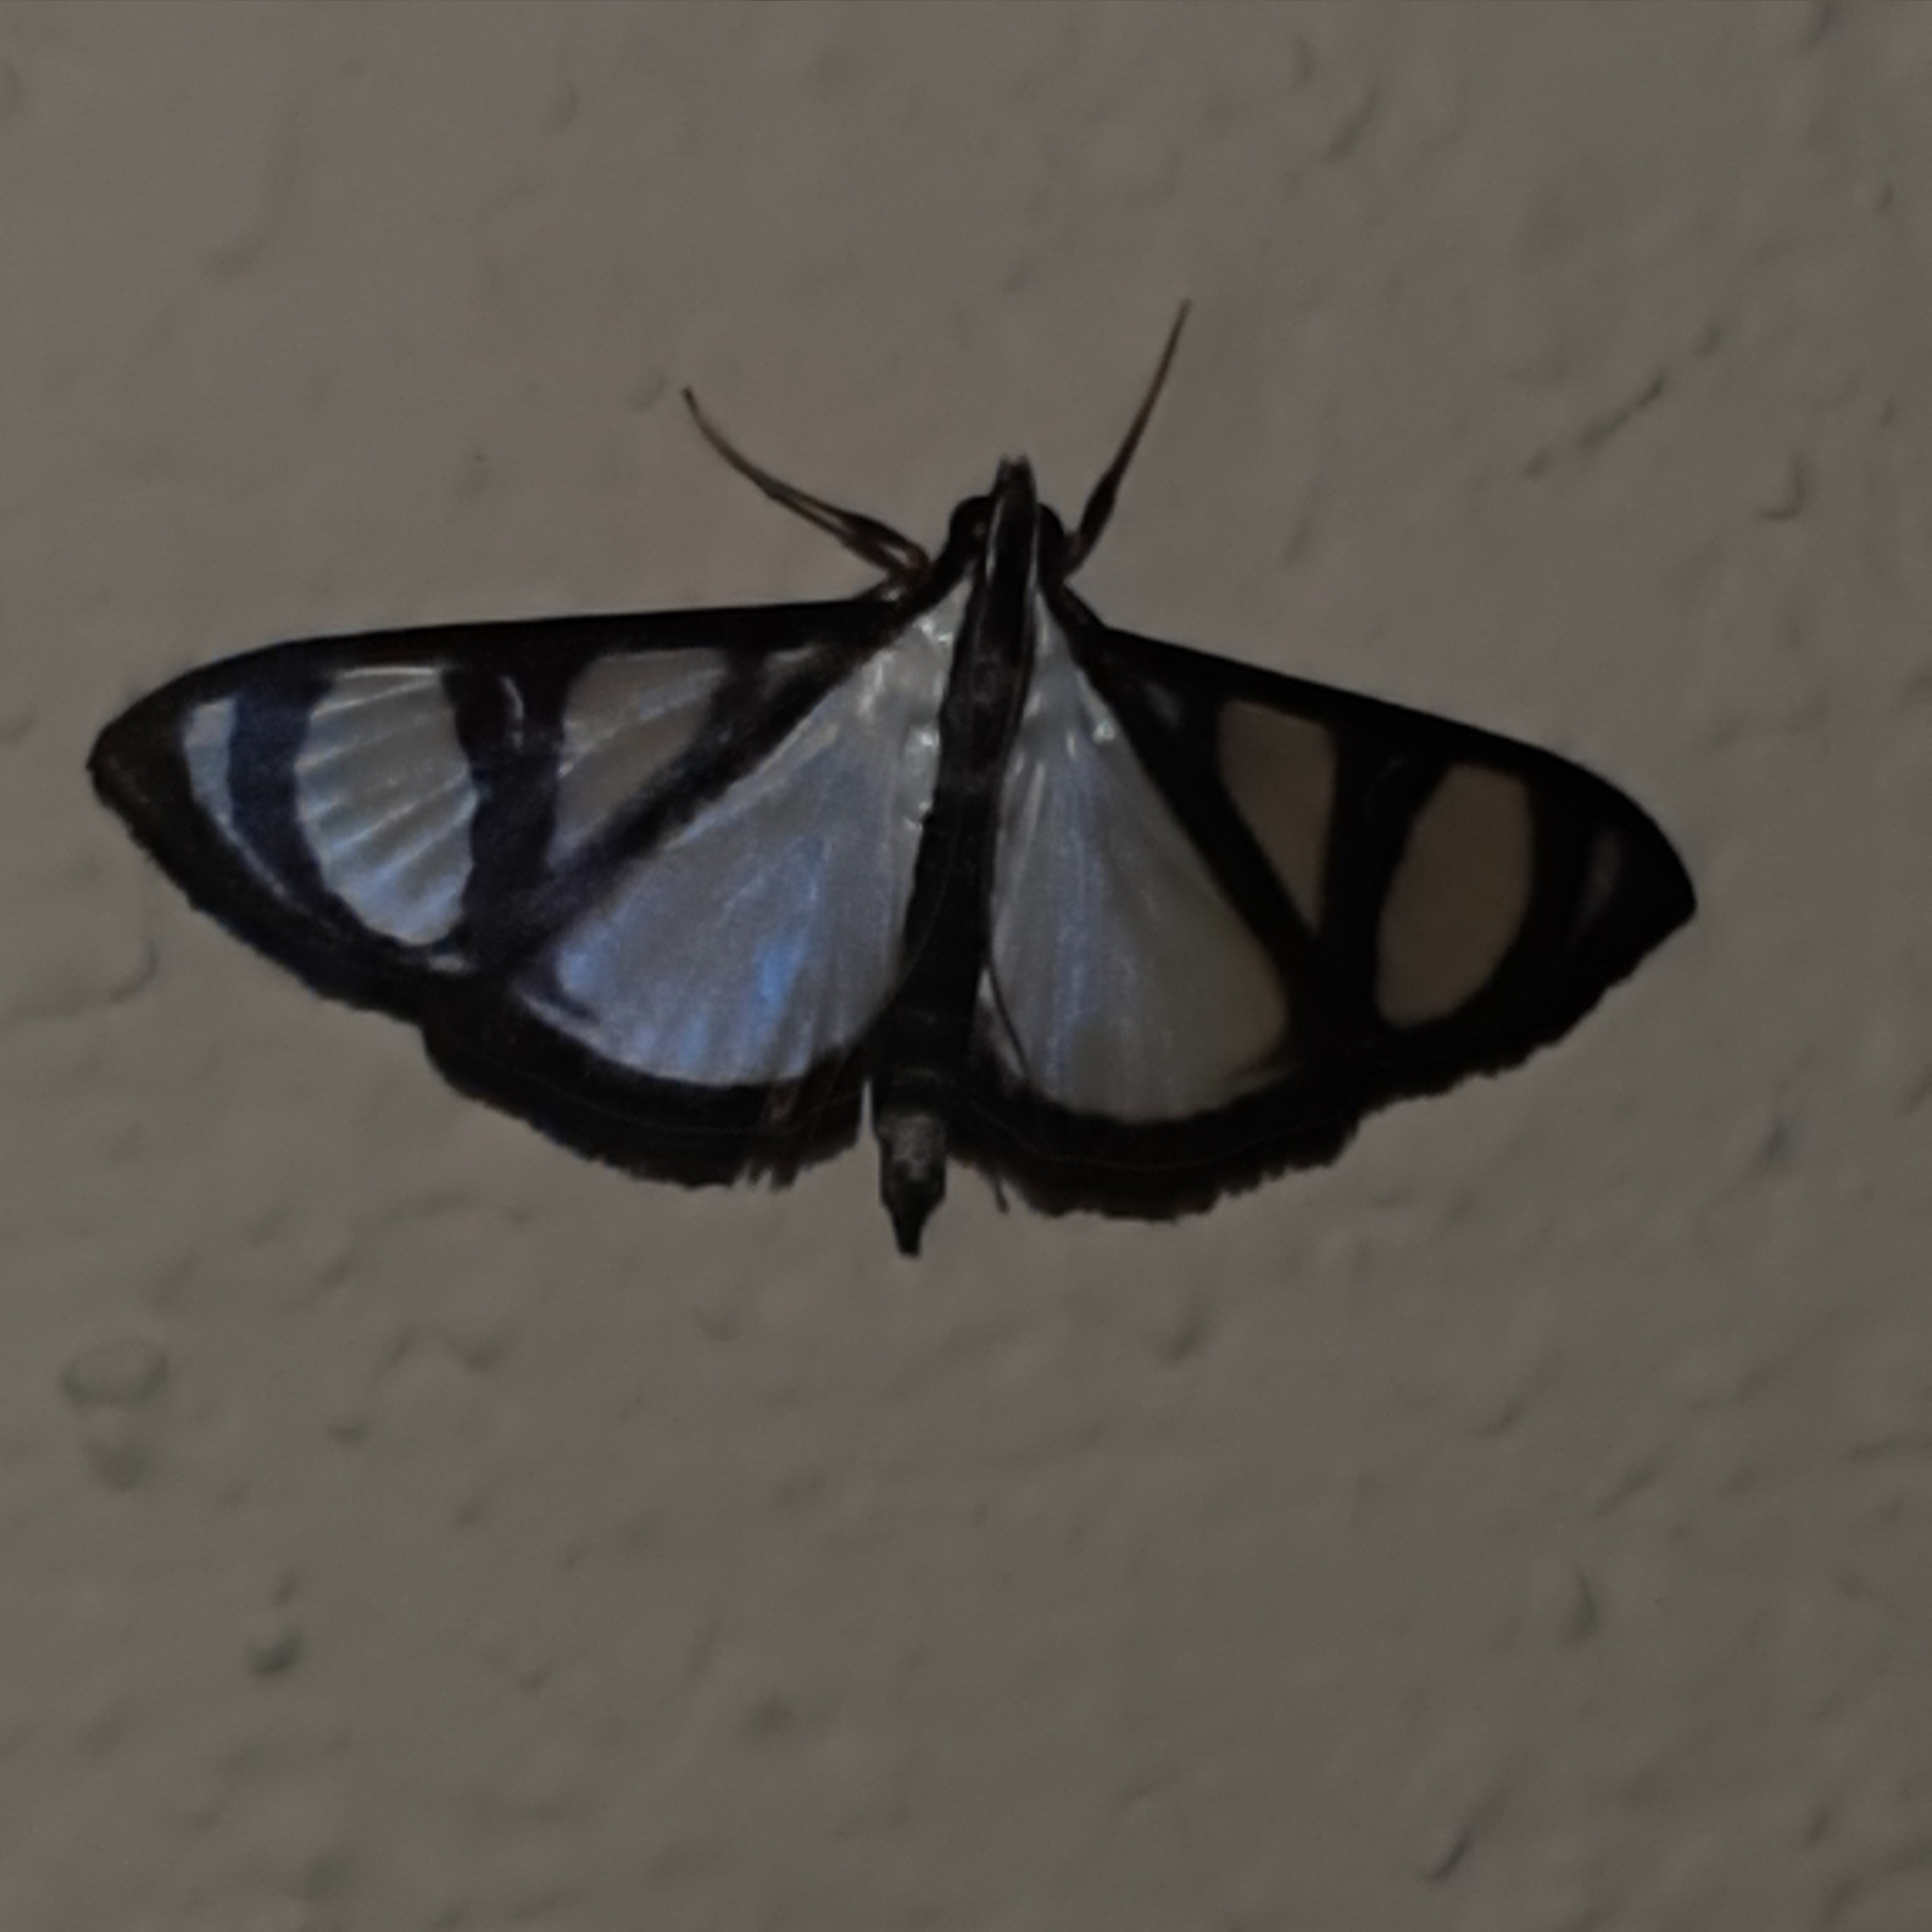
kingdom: Animalia
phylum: Arthropoda
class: Insecta
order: Lepidoptera
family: Crambidae
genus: Glyphodes
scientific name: Glyphodes confinis
